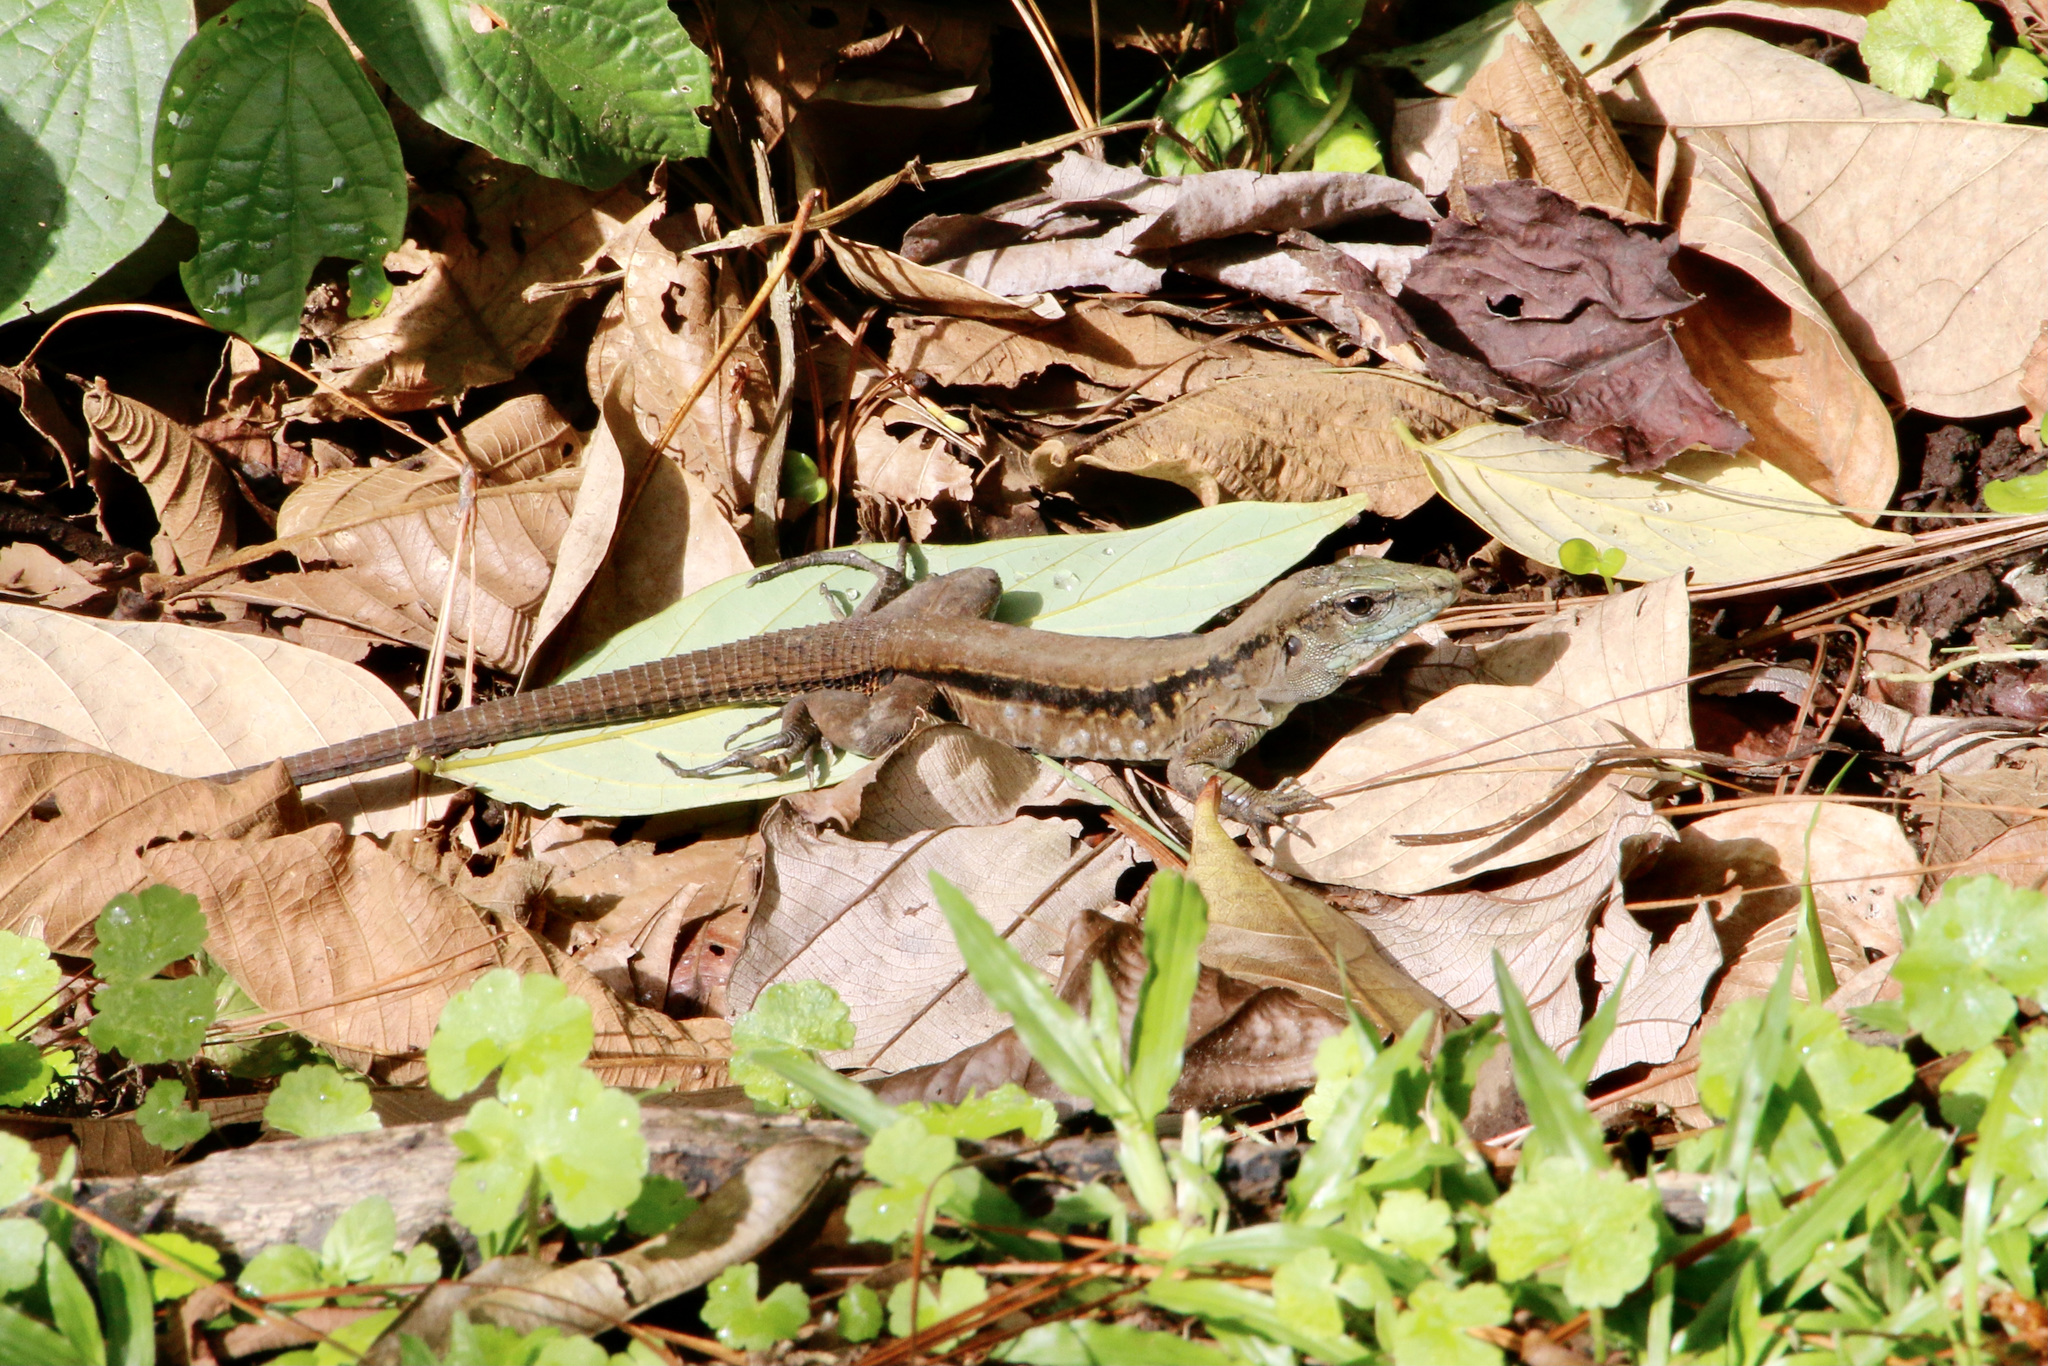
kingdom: Animalia
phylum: Chordata
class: Squamata
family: Teiidae
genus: Holcosus
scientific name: Holcosus festivus
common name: Middle american ameiva
